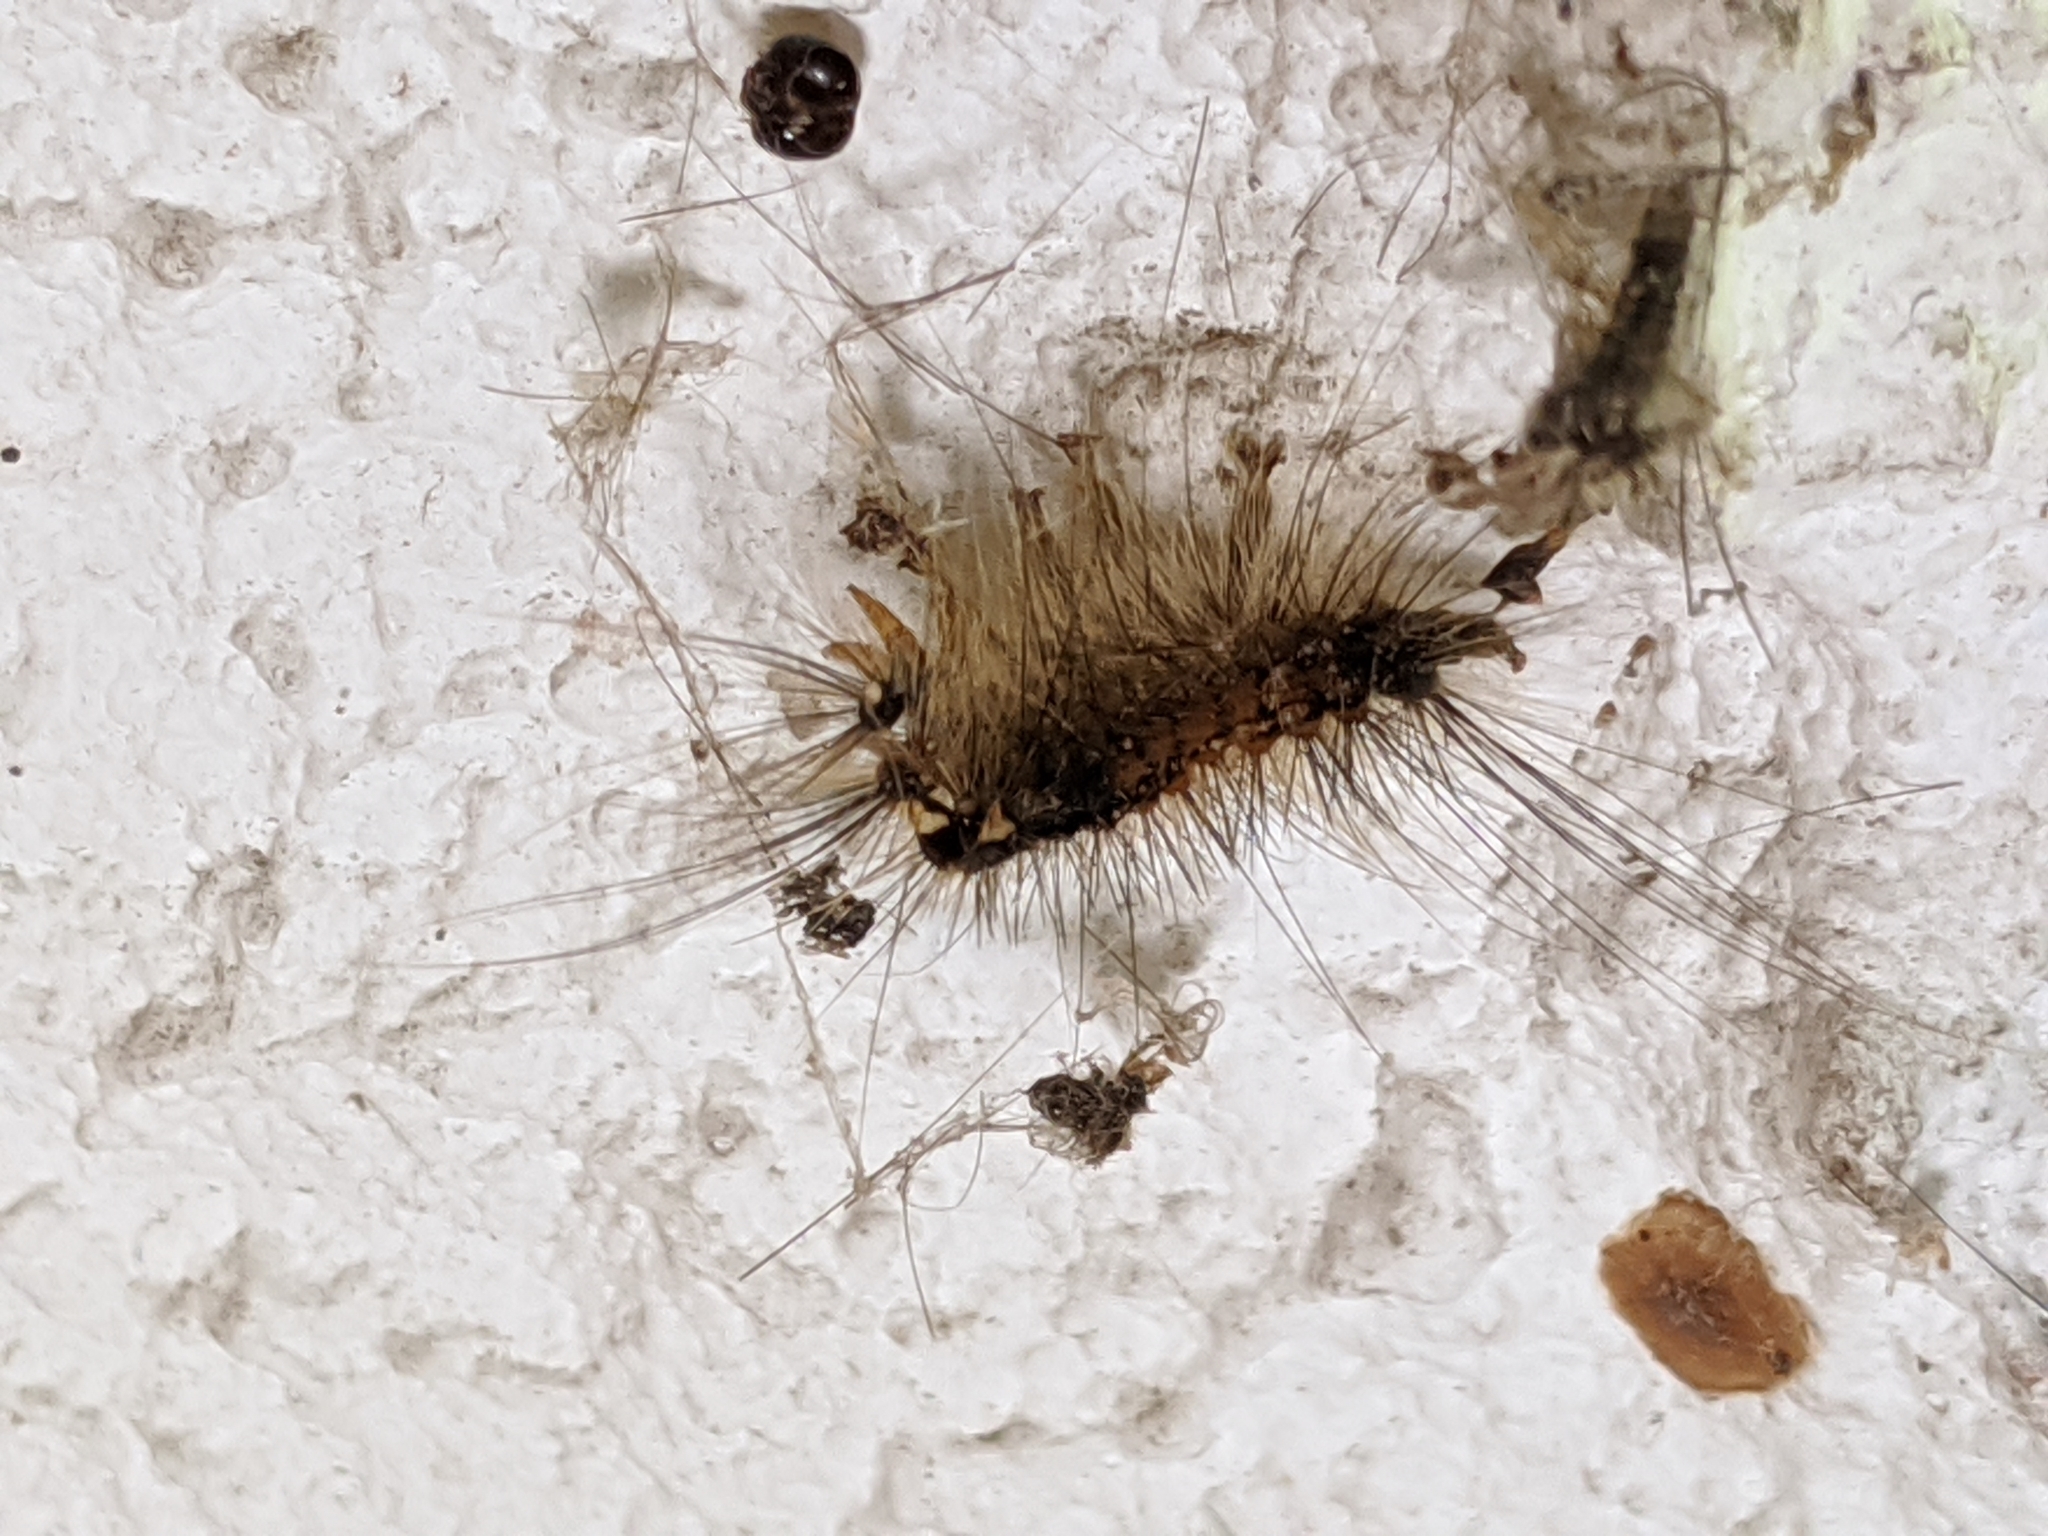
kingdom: Animalia
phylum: Arthropoda
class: Insecta
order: Lepidoptera
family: Erebidae
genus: Lymantria
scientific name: Lymantria dispar
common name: Gypsy moth
